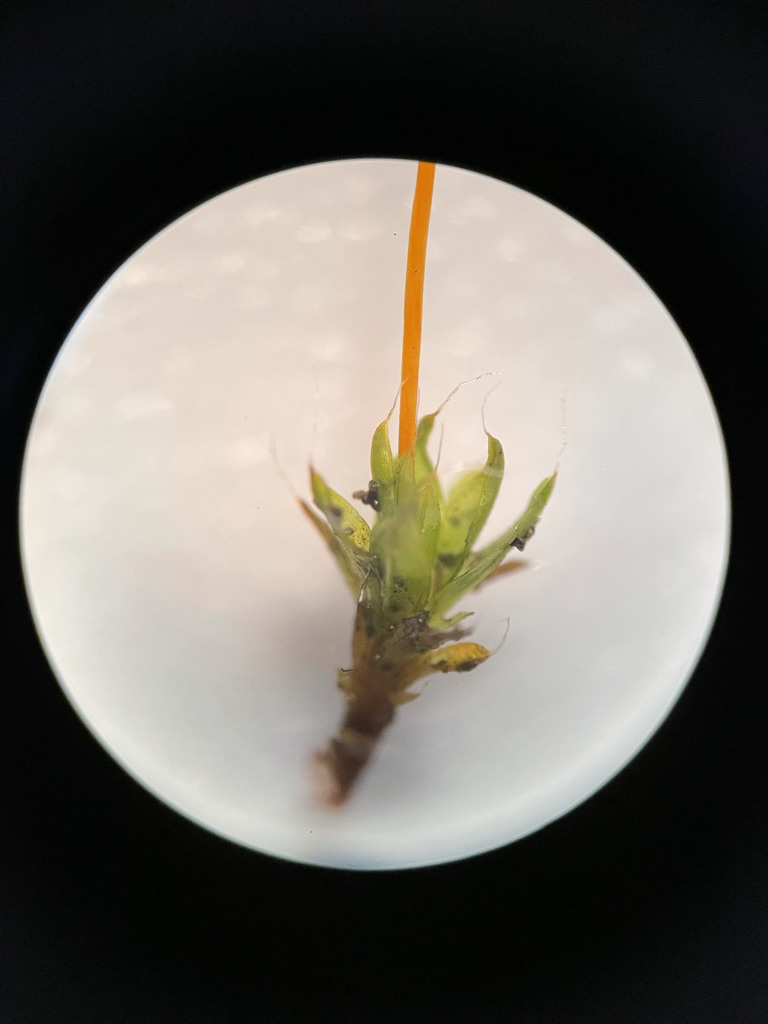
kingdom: Plantae
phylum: Bryophyta
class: Bryopsida
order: Pottiales
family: Pottiaceae
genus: Tortula
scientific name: Tortula muralis
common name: Wall screw-moss
